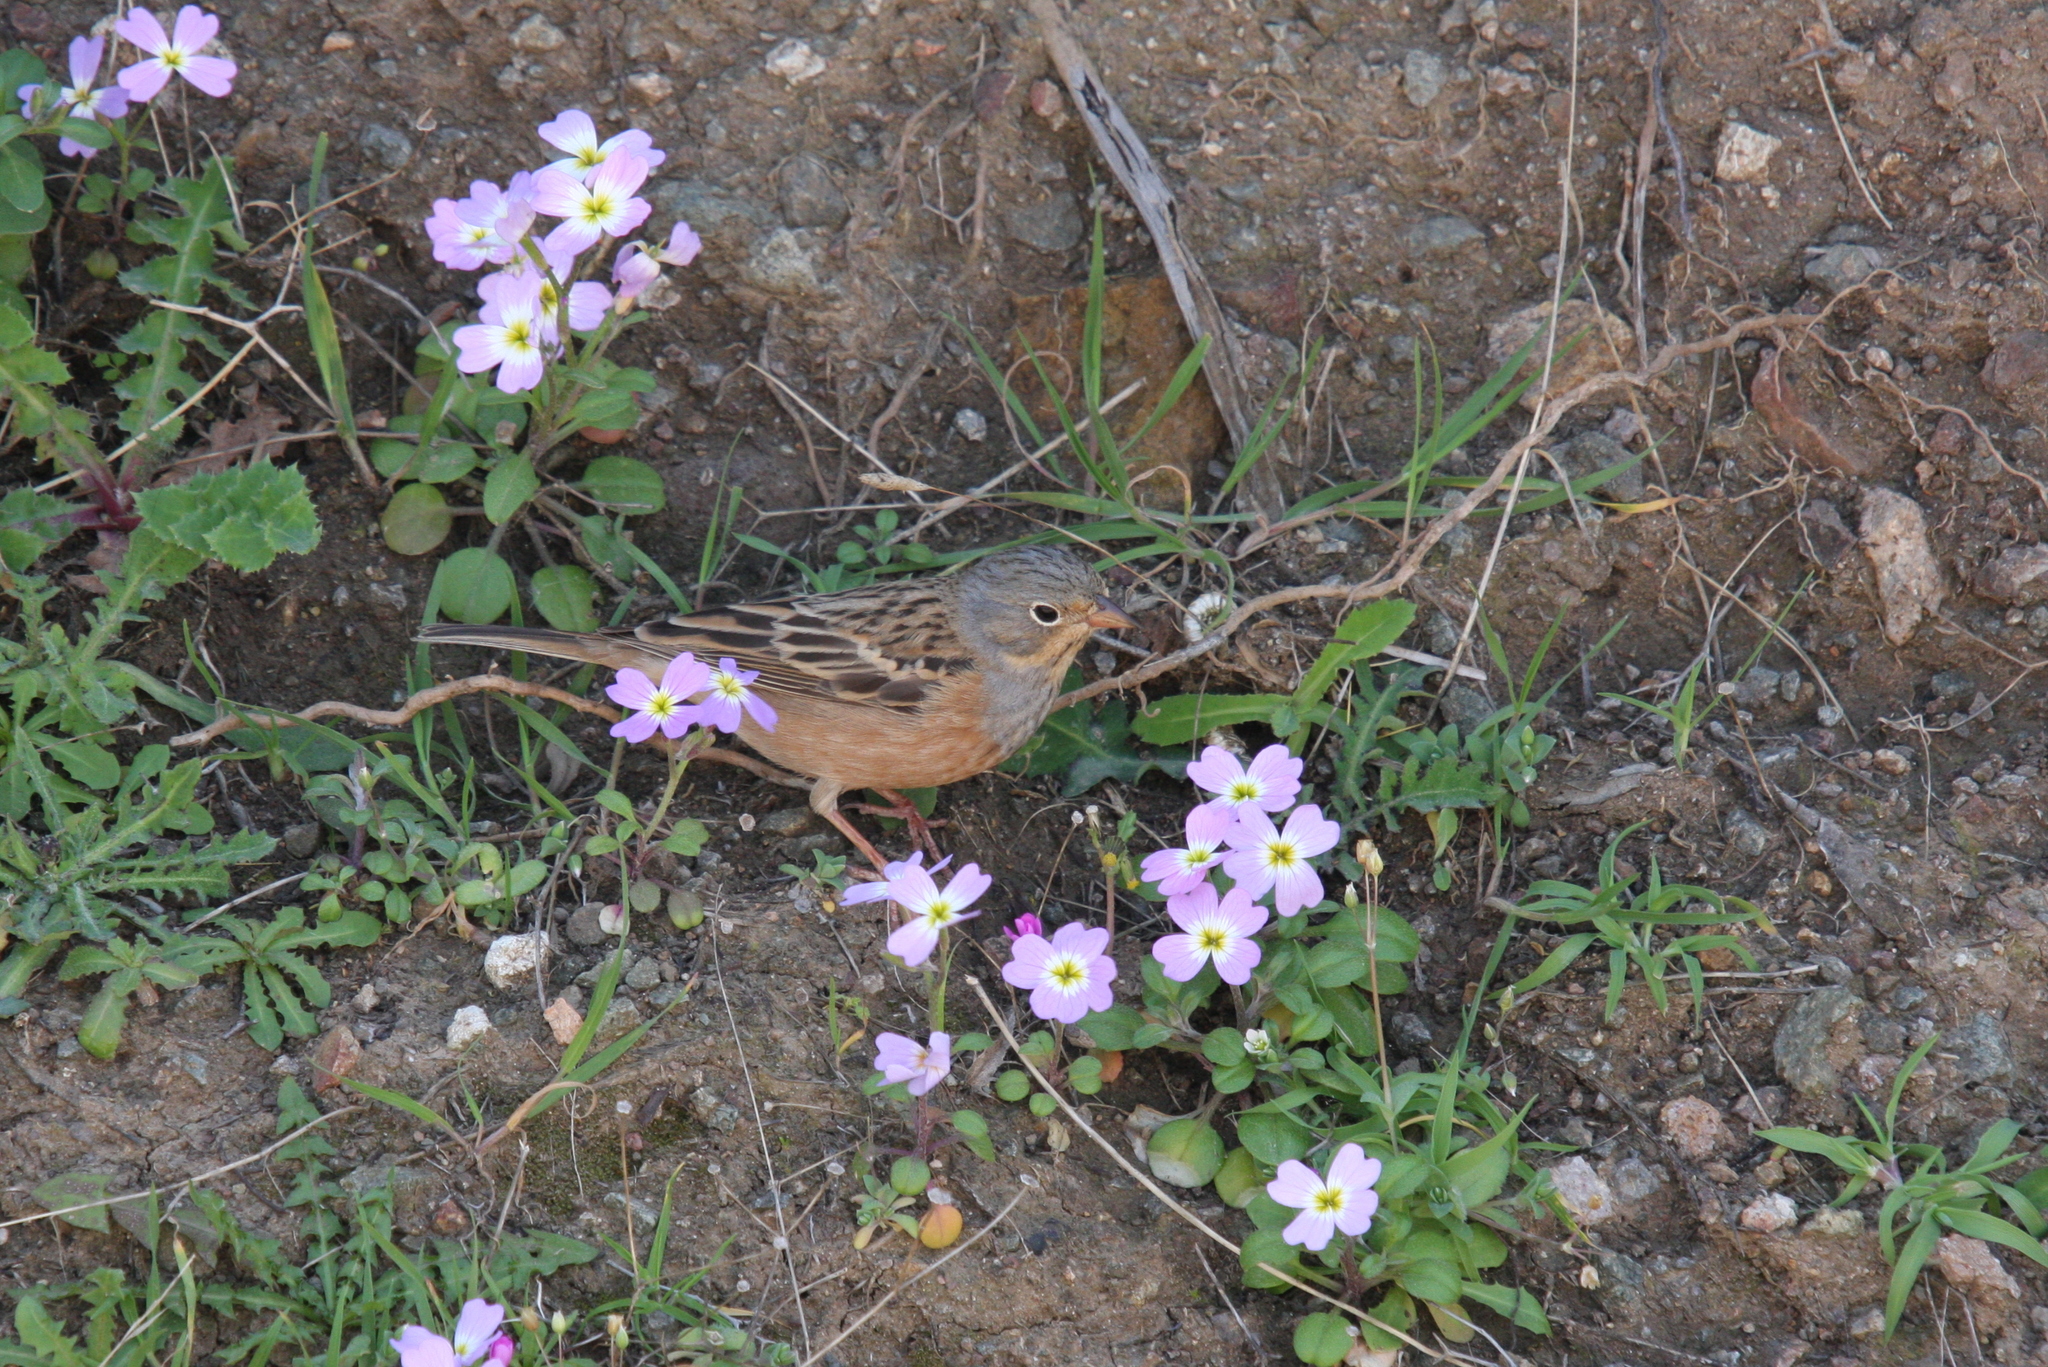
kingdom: Animalia
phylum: Chordata
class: Aves
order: Passeriformes
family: Emberizidae
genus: Emberiza
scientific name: Emberiza caesia
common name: Cretzschmar's bunting
